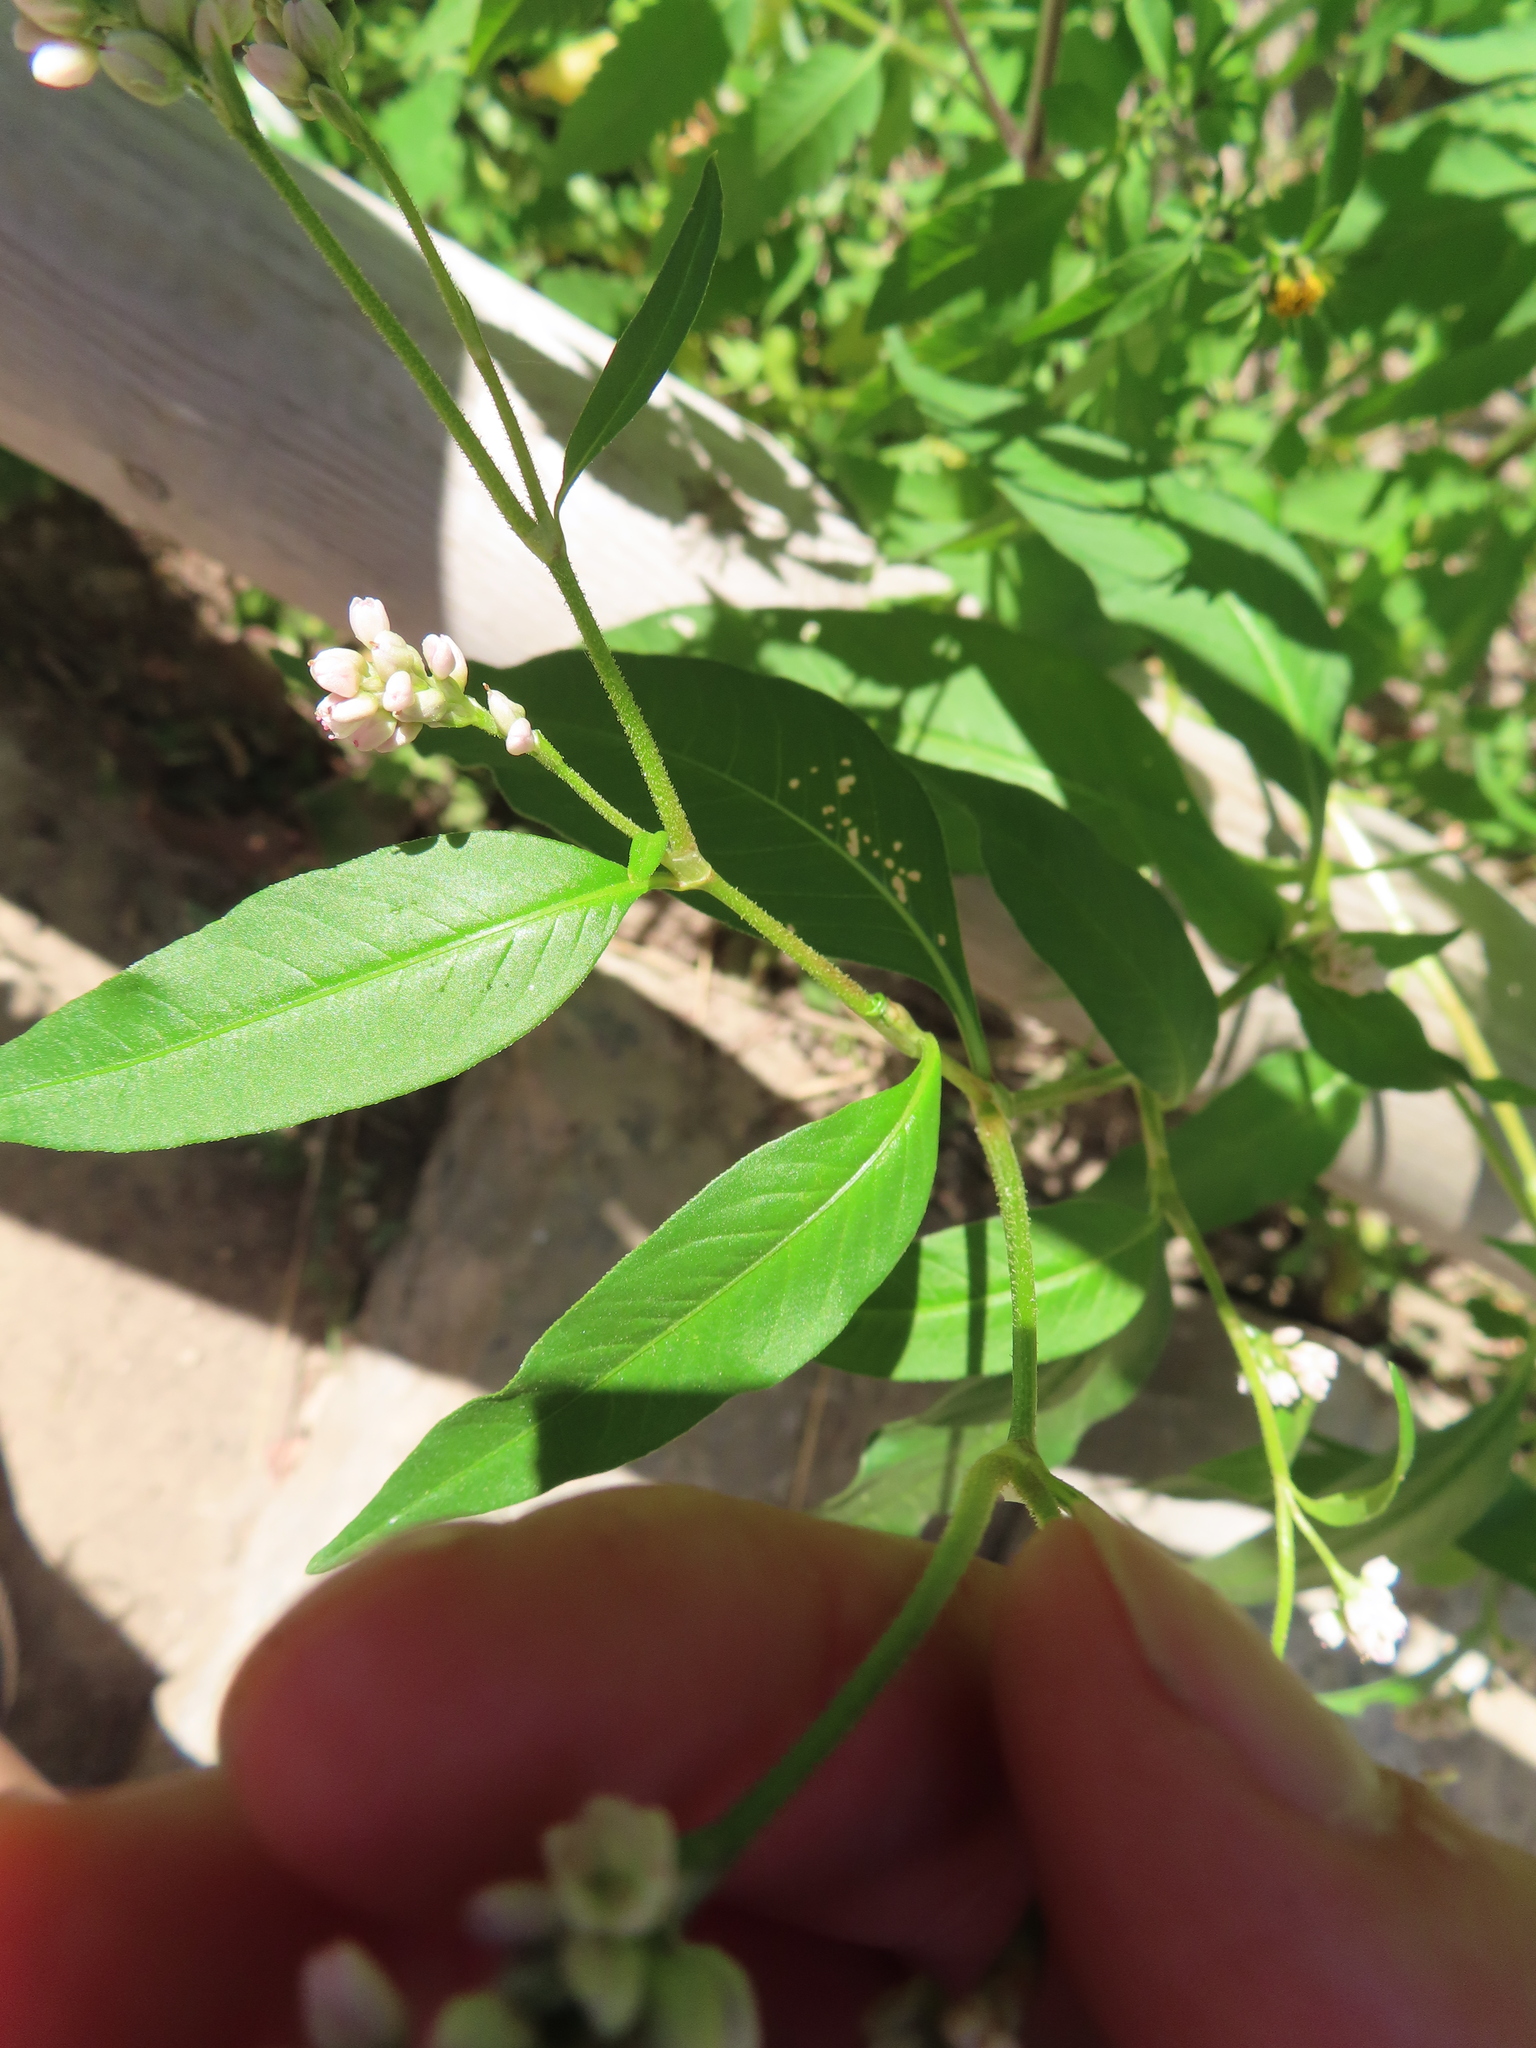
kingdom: Plantae
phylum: Tracheophyta
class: Magnoliopsida
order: Caryophyllales
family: Polygonaceae
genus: Persicaria
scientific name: Persicaria pensylvanica
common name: Pinkweed
